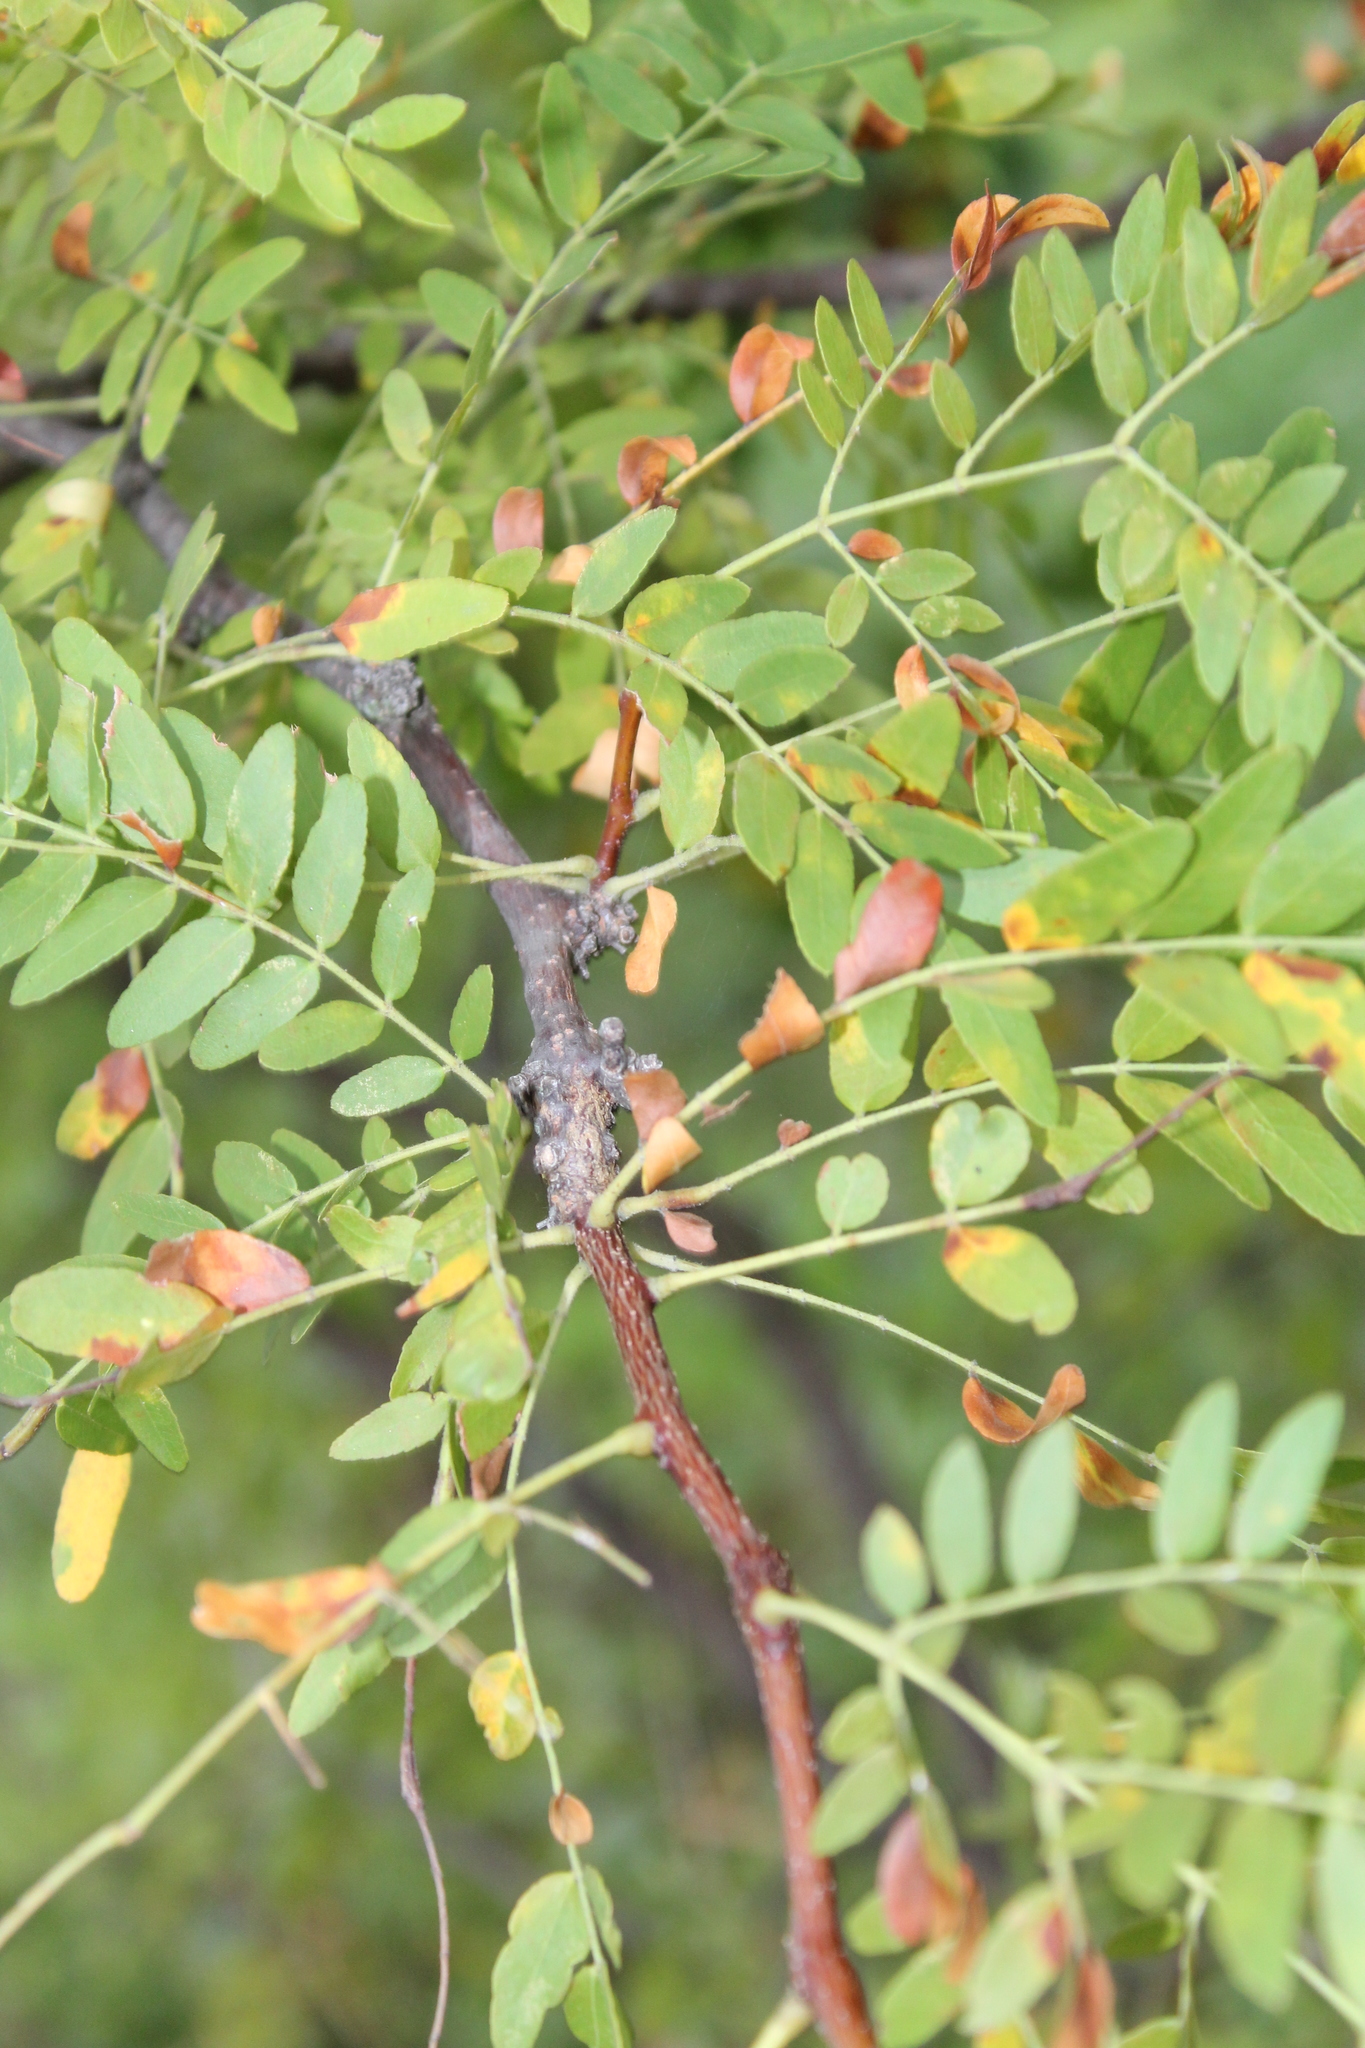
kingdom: Plantae
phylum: Tracheophyta
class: Magnoliopsida
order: Fabales
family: Fabaceae
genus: Gleditsia
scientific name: Gleditsia triacanthos
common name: Common honeylocust
